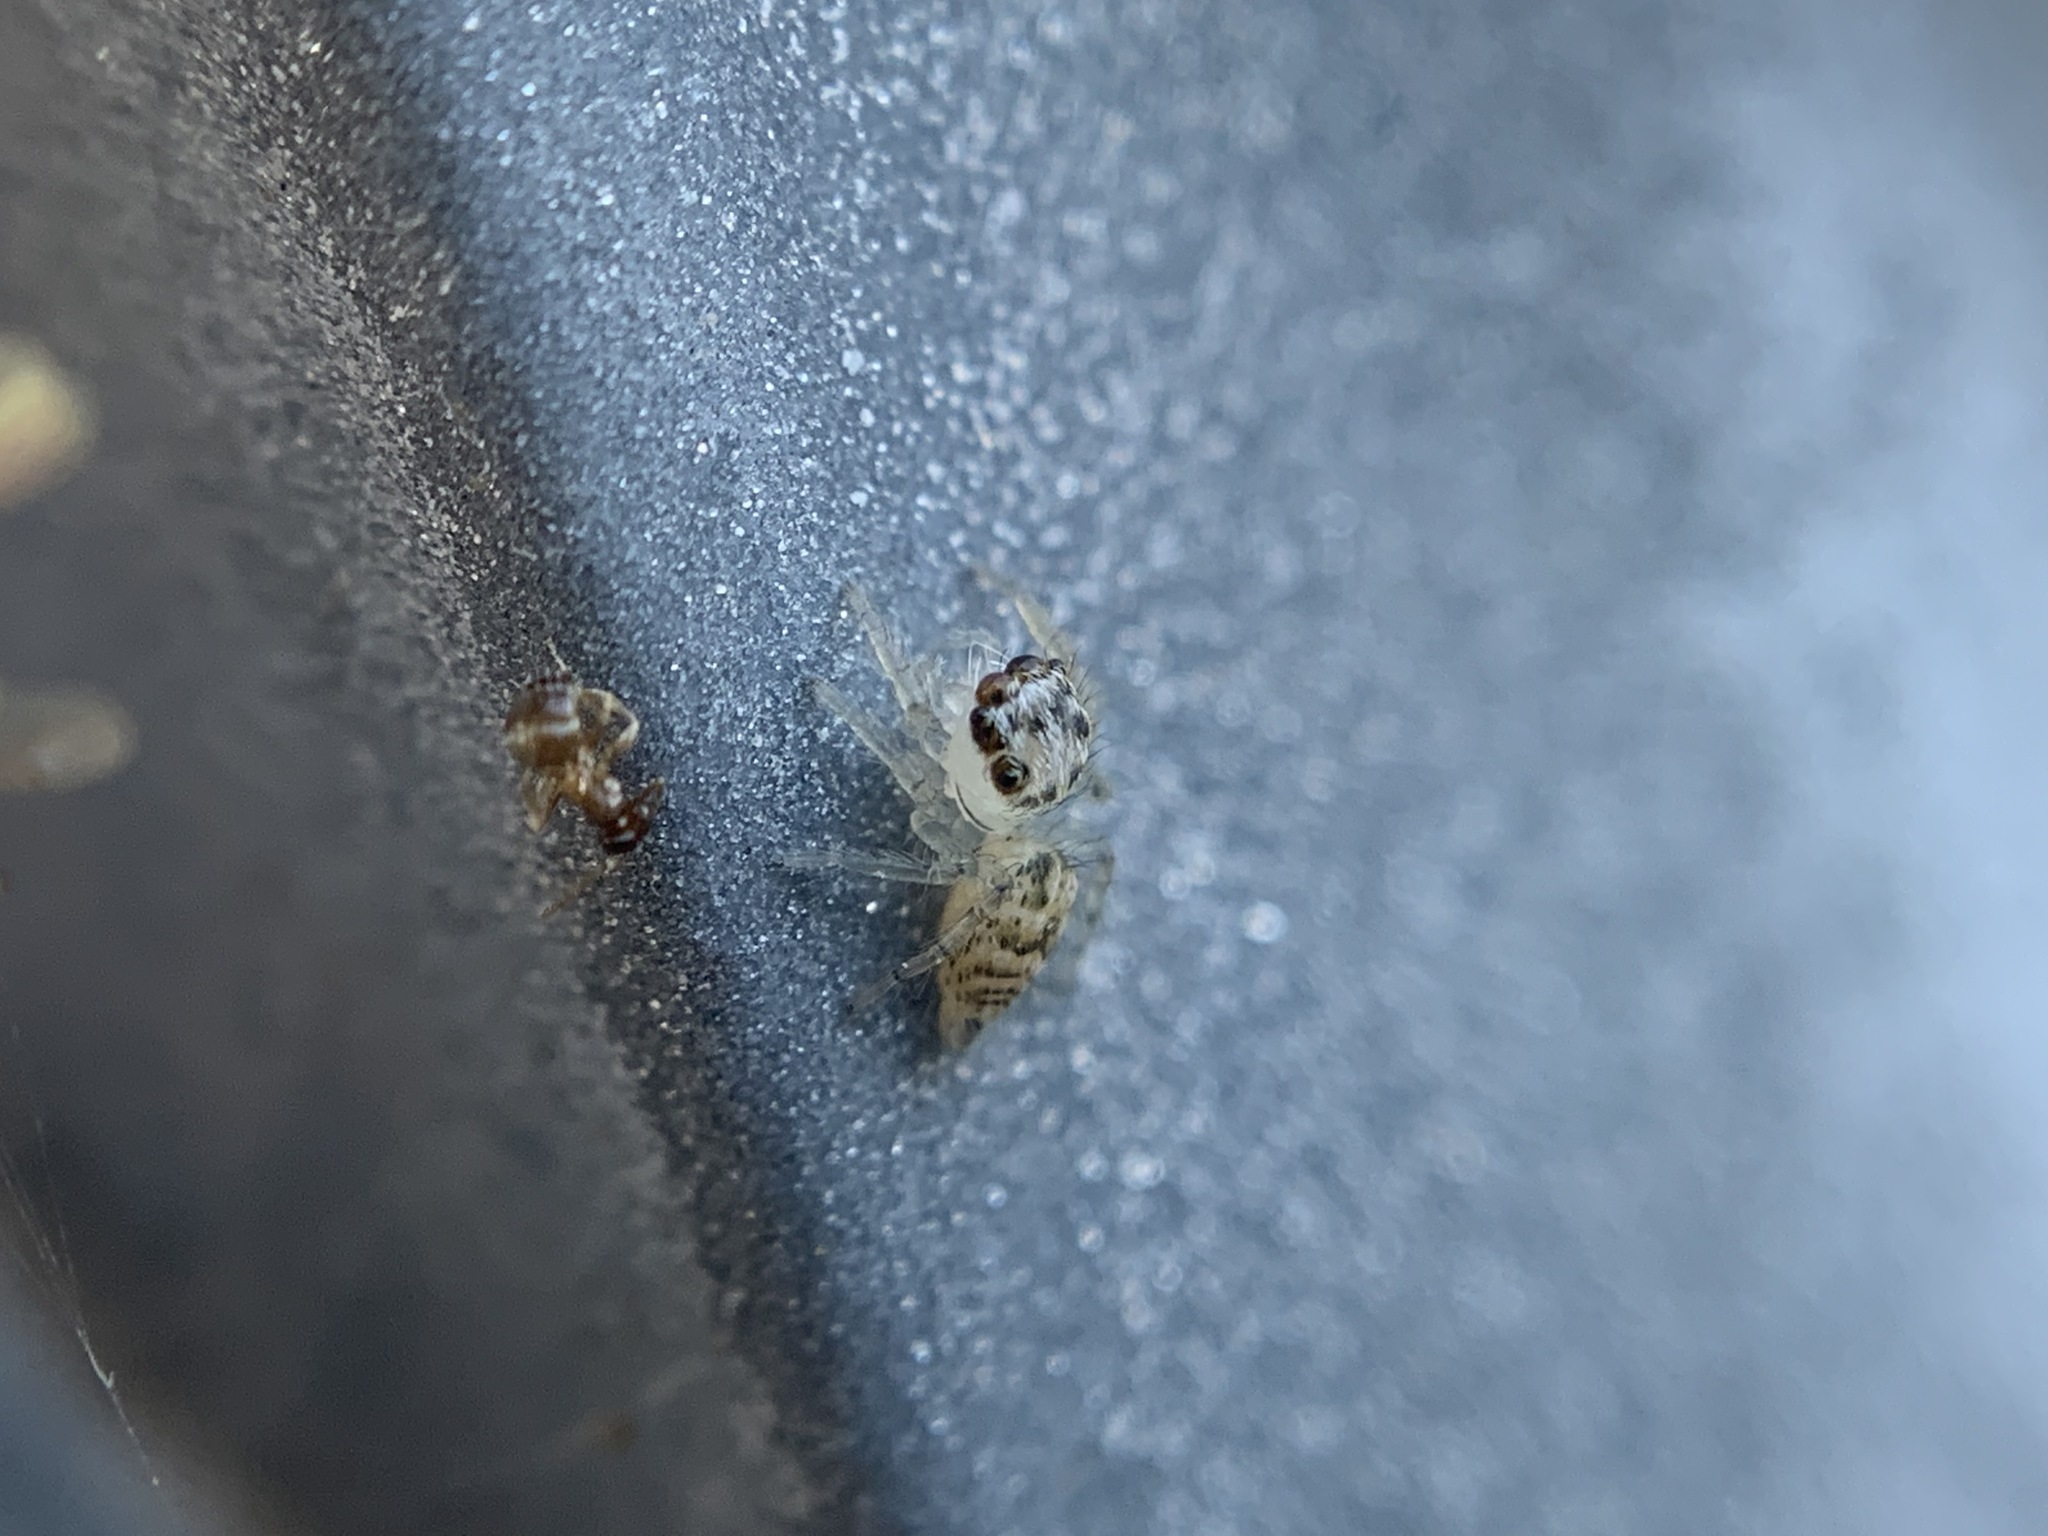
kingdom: Animalia
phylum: Arthropoda
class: Arachnida
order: Araneae
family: Salticidae
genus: Colonus
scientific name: Colonus hesperus
